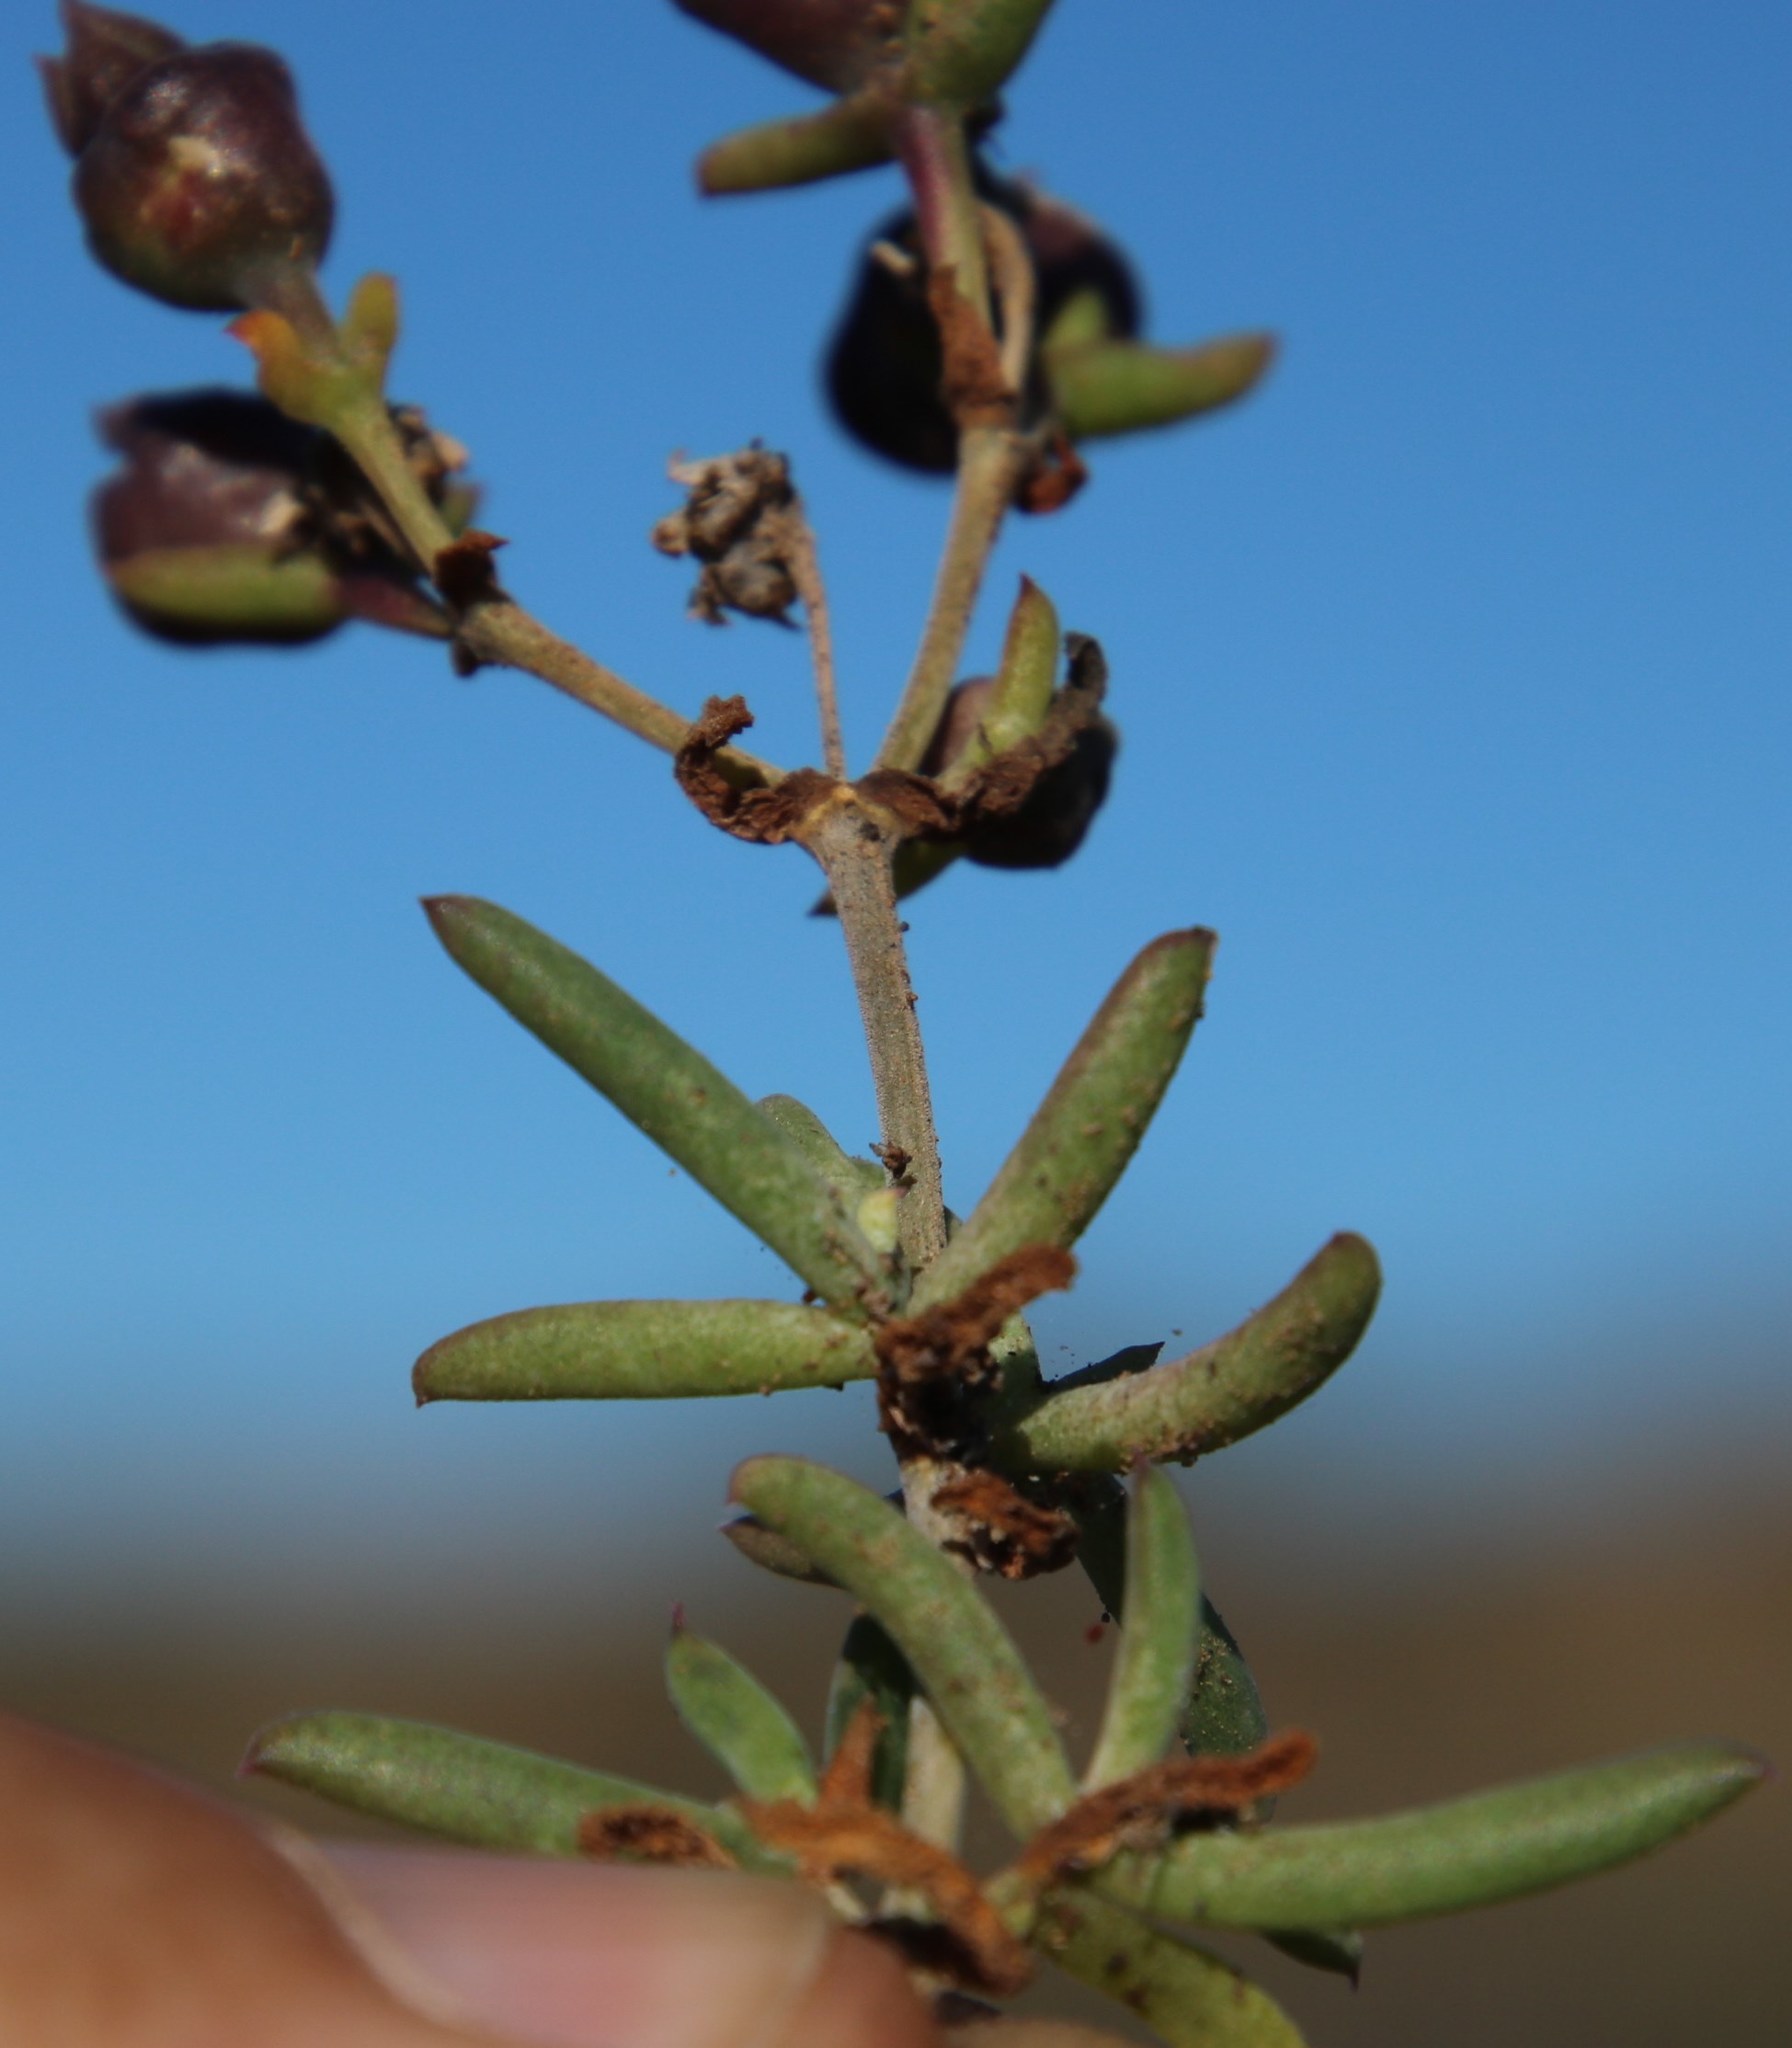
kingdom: Plantae
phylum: Tracheophyta
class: Magnoliopsida
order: Caryophyllales
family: Aizoaceae
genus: Delosperma
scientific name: Delosperma ornatulum
